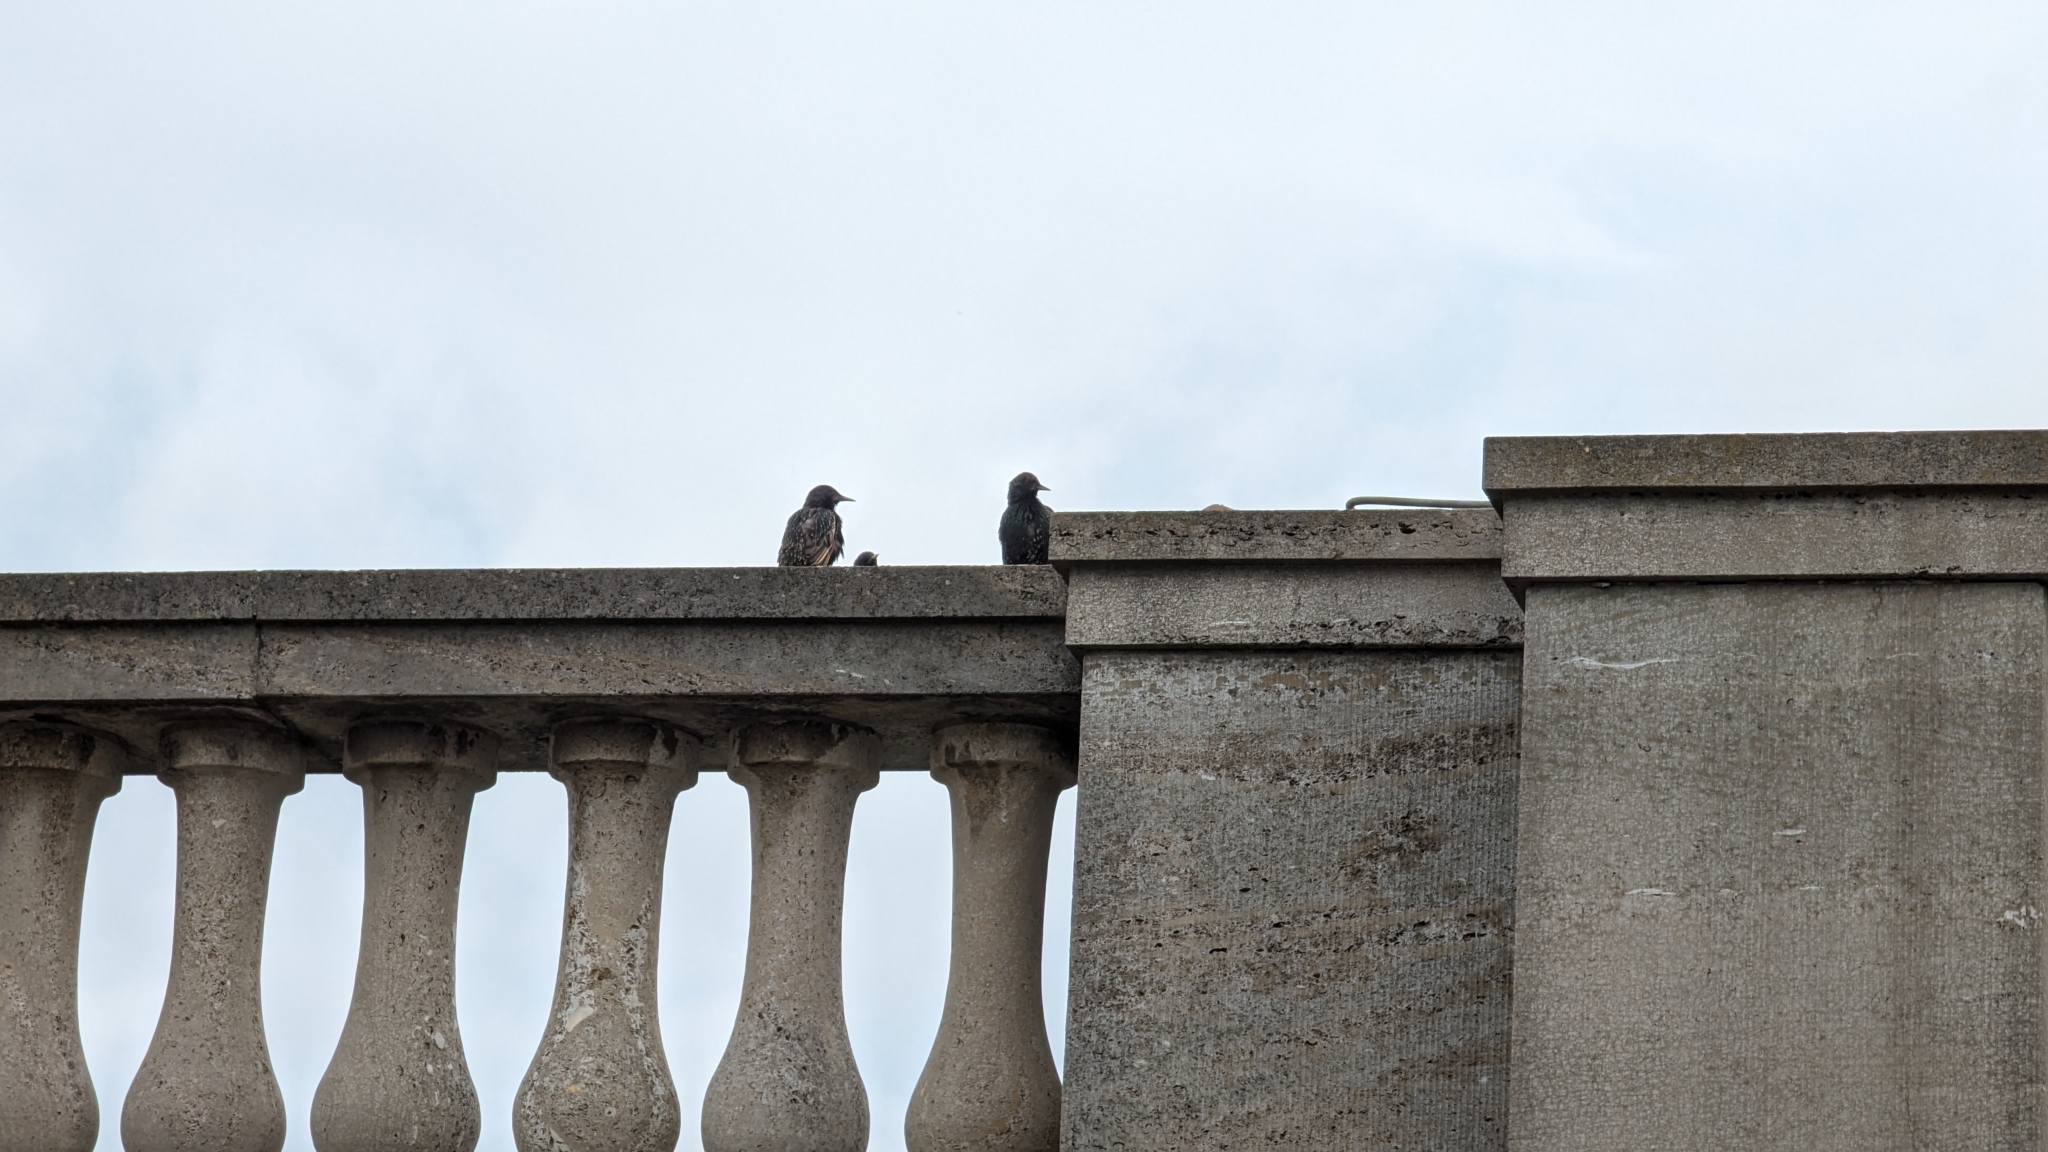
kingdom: Animalia
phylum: Chordata
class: Aves
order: Passeriformes
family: Sturnidae
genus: Sturnus
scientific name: Sturnus vulgaris
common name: Common starling
